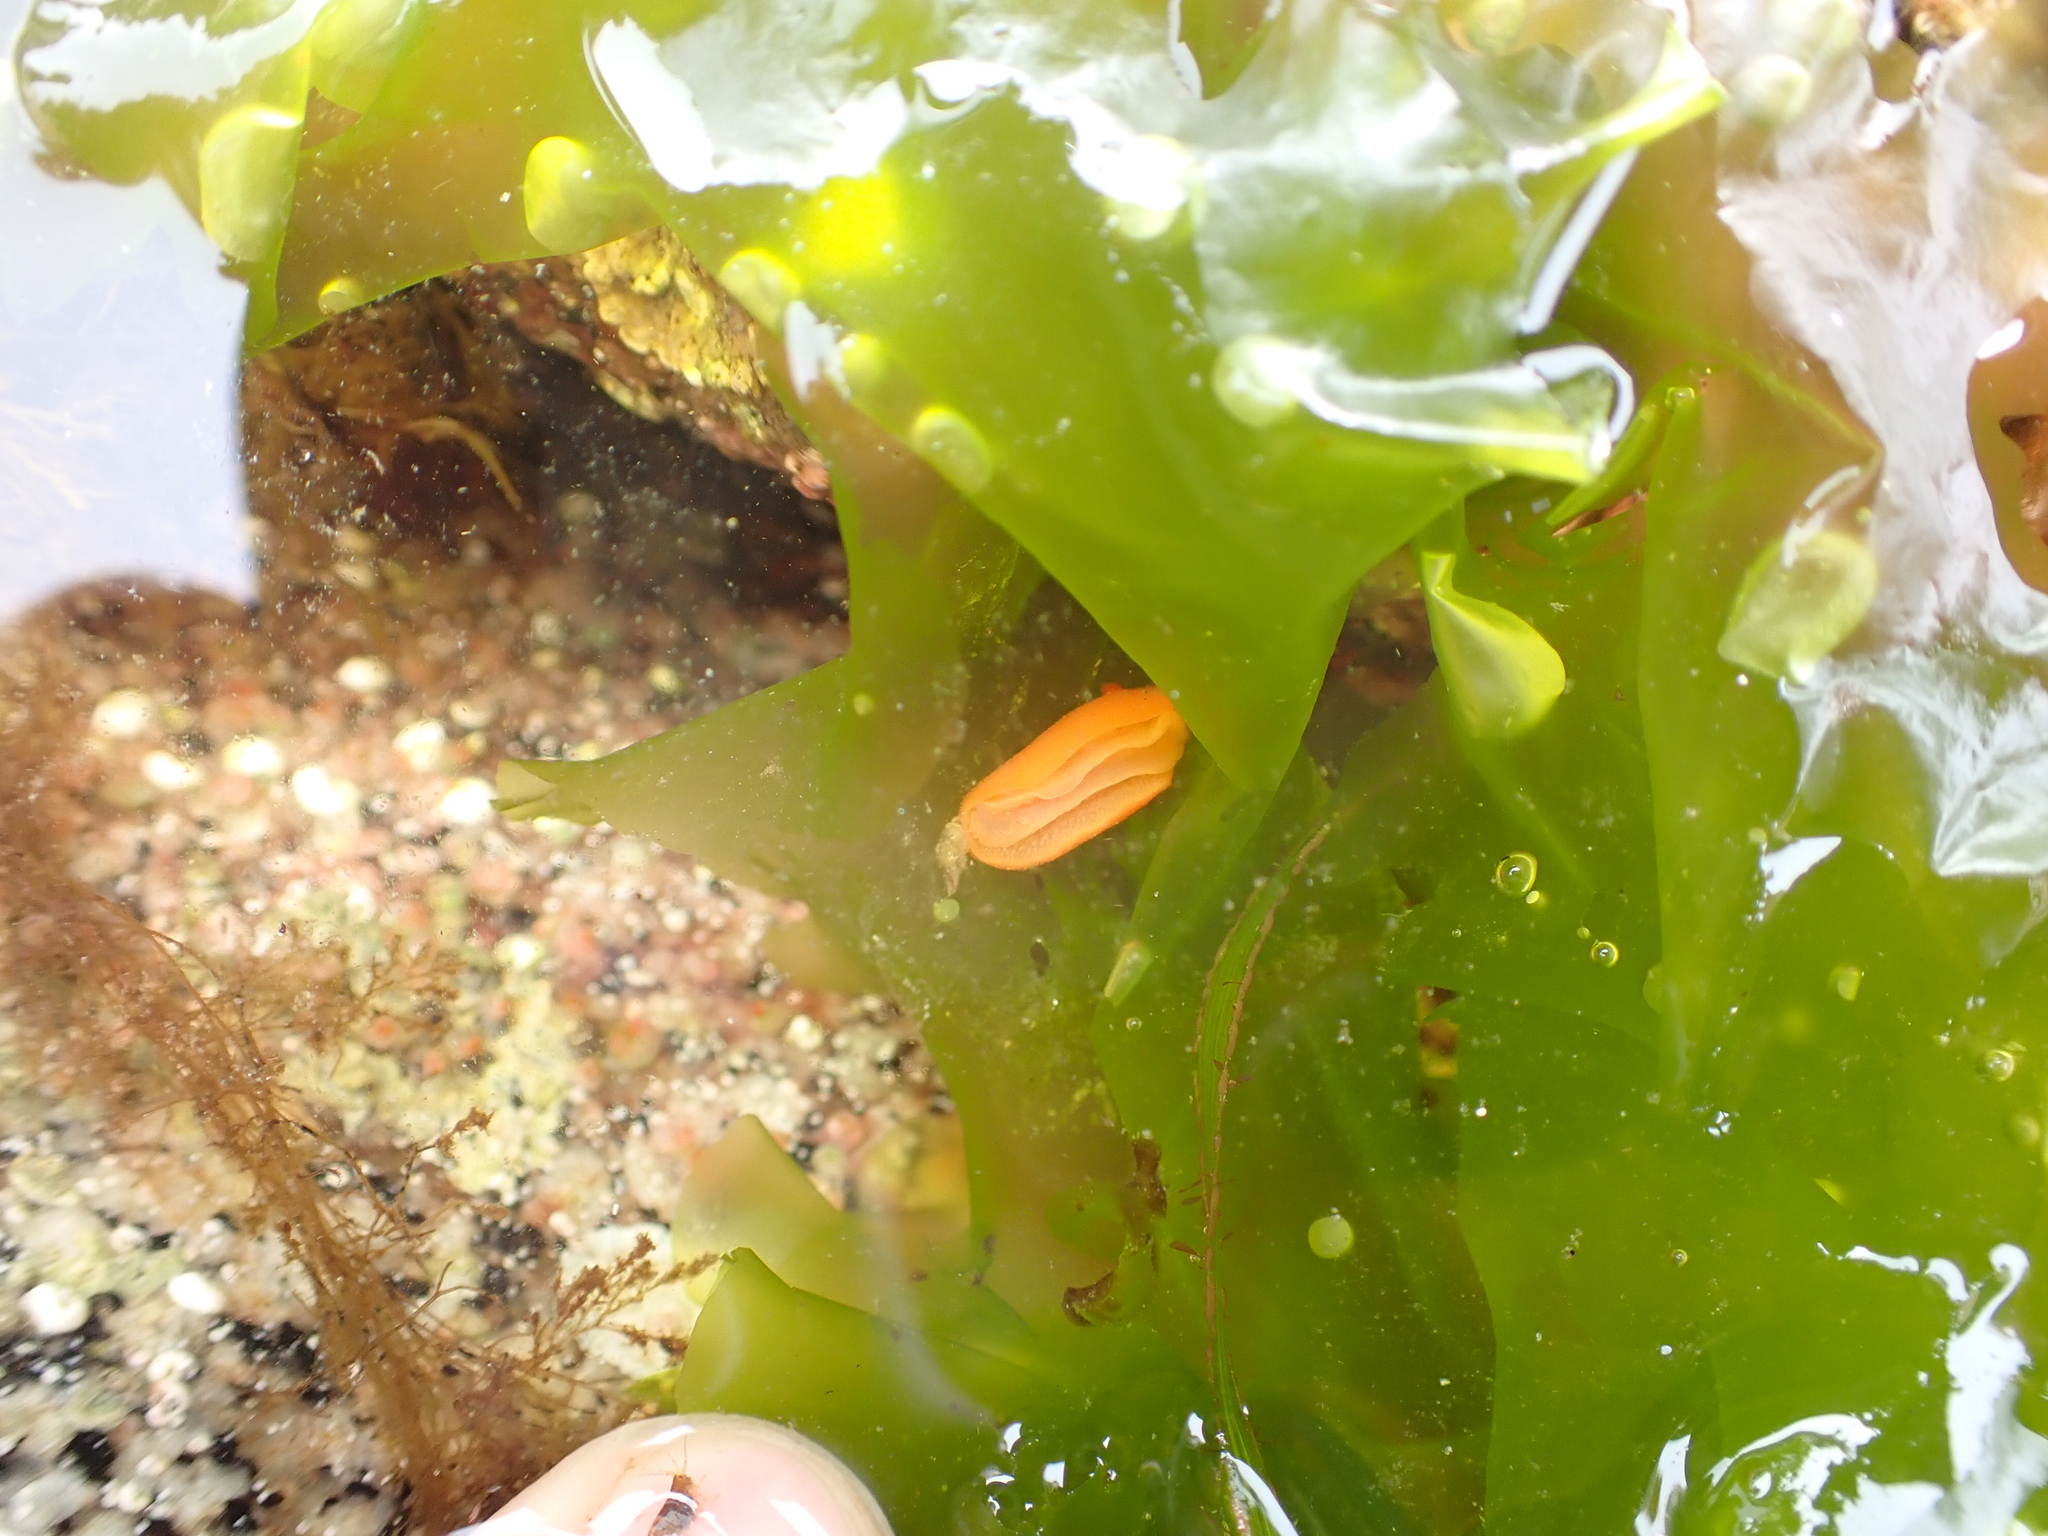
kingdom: Animalia
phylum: Mollusca
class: Gastropoda
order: Nudibranchia
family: Discodorididae
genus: Rostanga
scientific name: Rostanga pulchra
